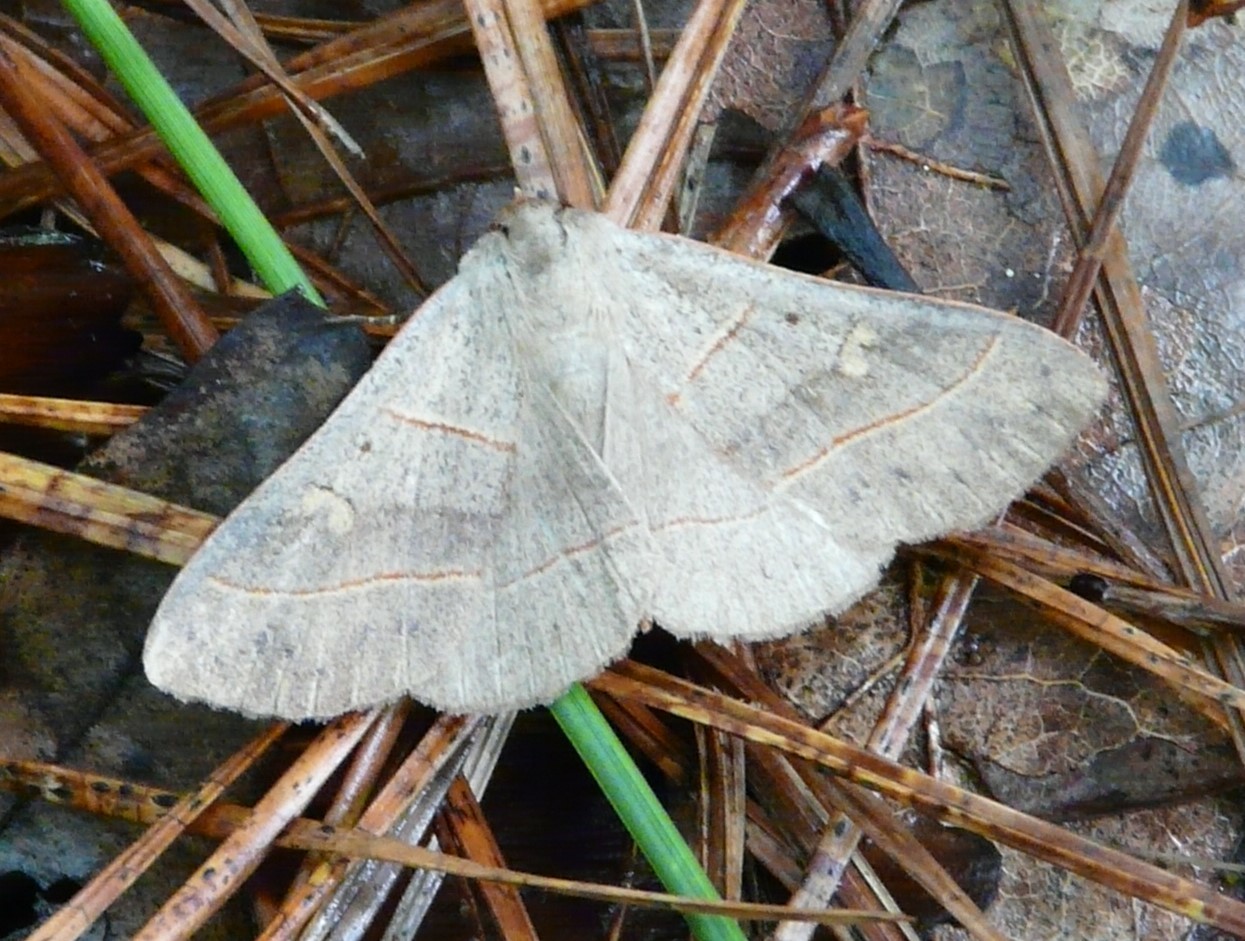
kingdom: Animalia
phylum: Arthropoda
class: Insecta
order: Lepidoptera
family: Erebidae
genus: Panopoda
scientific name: Panopoda rufimargo
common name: Red-lined panopoda moth
